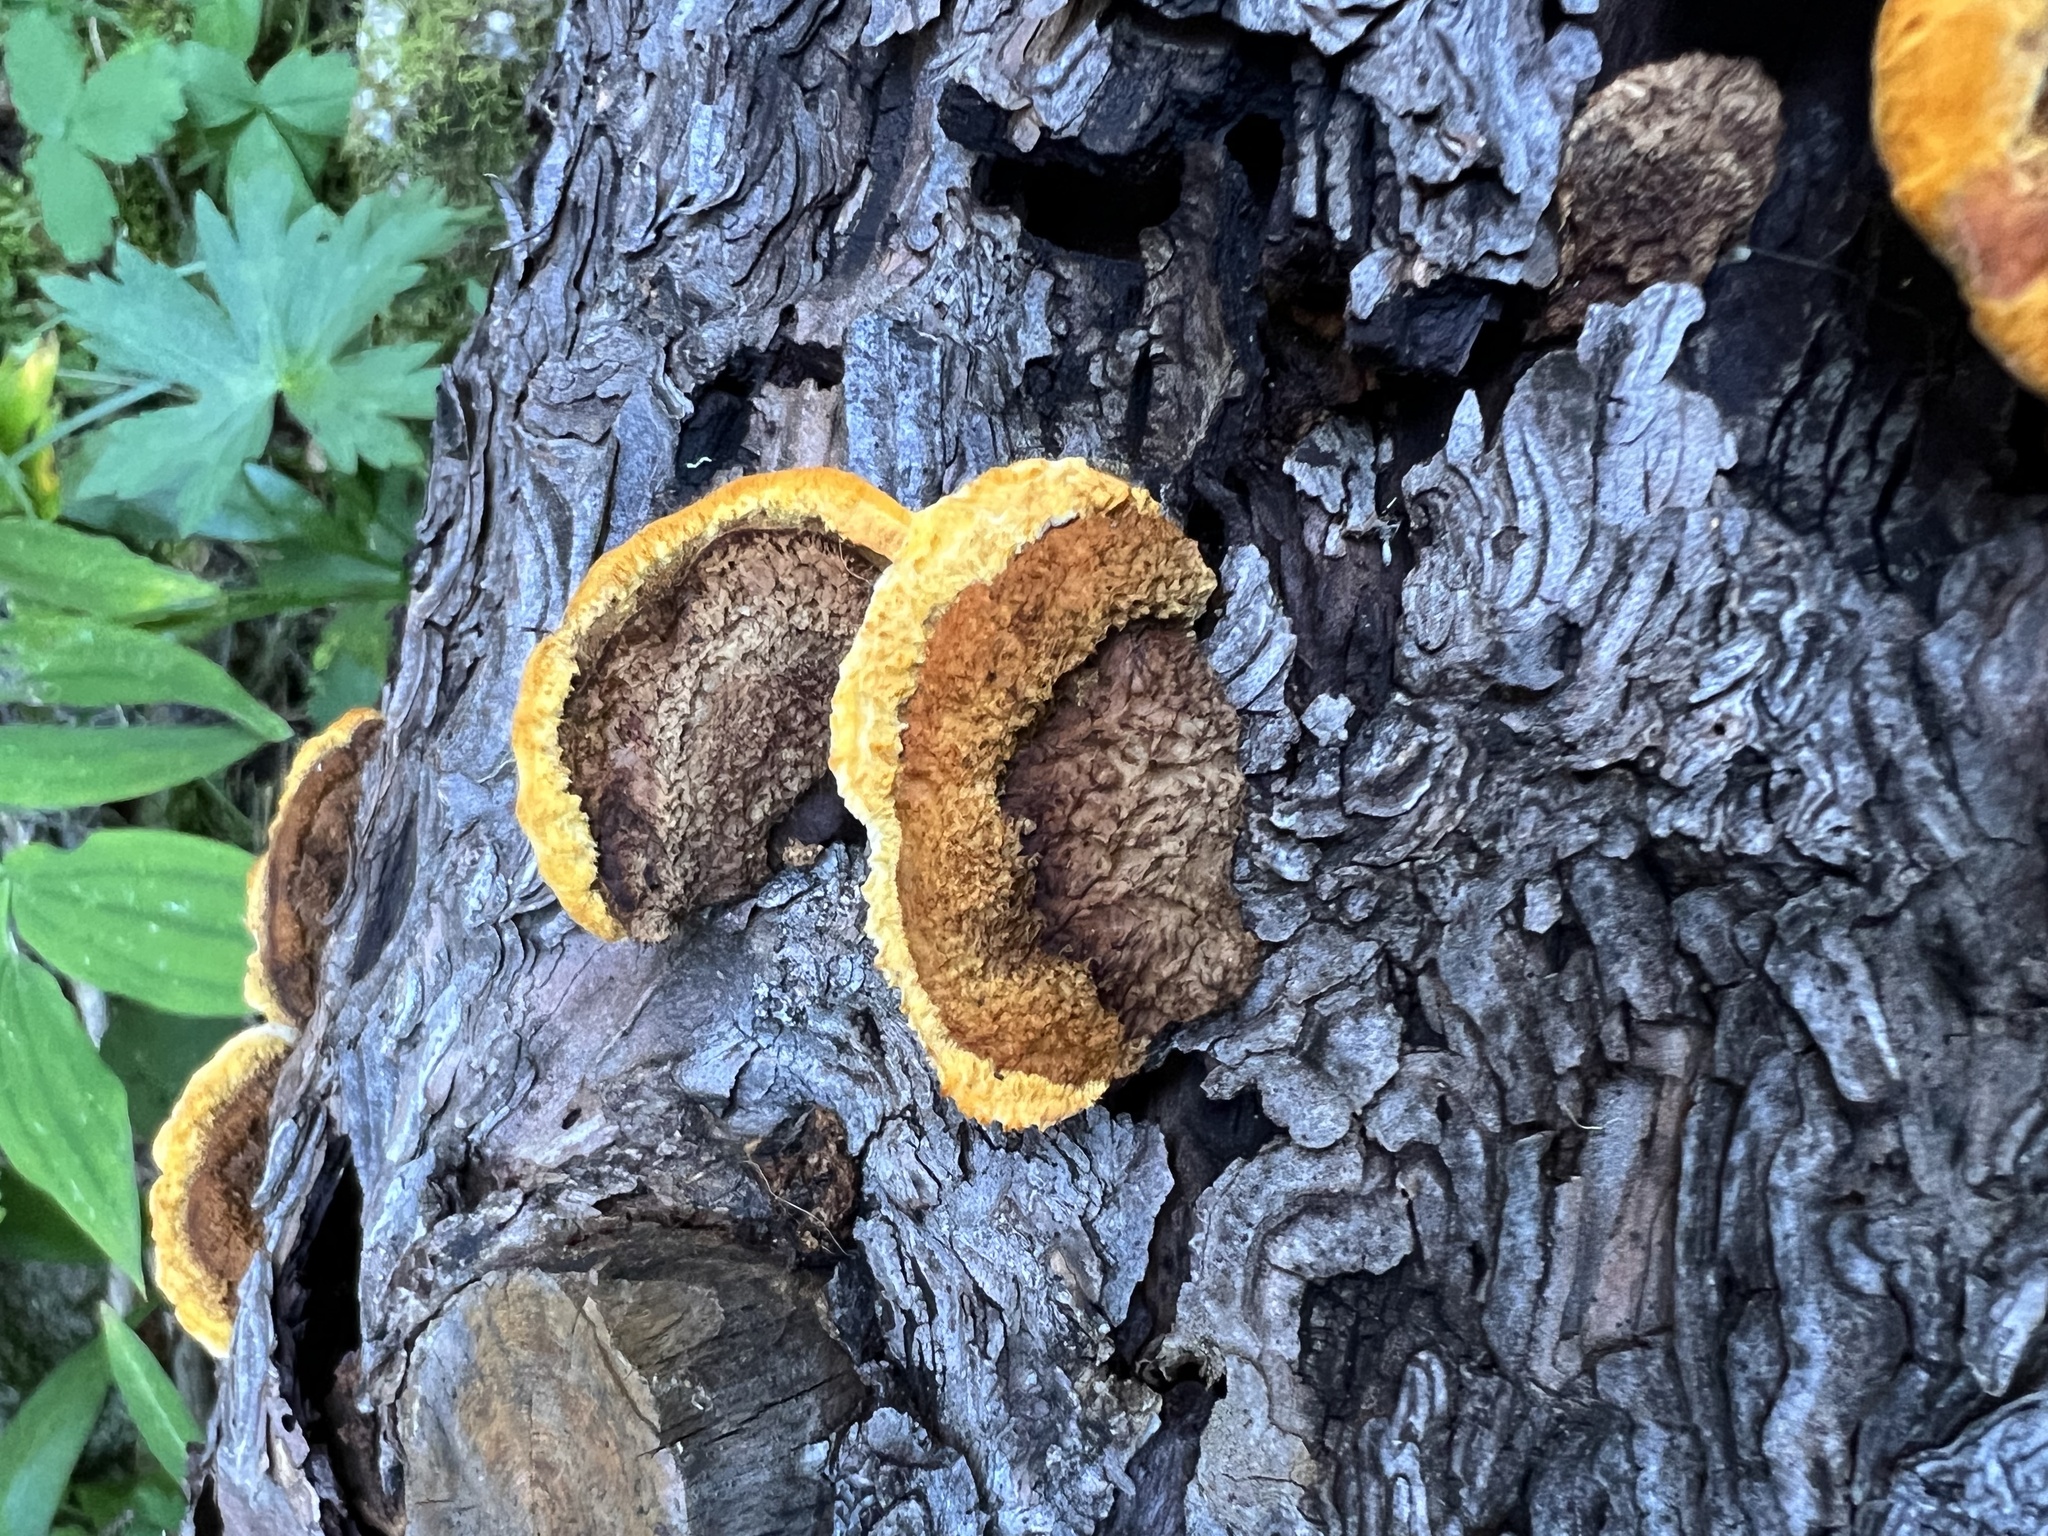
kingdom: Fungi
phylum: Basidiomycota
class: Agaricomycetes
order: Gloeophyllales
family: Gloeophyllaceae
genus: Gloeophyllum
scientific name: Gloeophyllum sepiarium
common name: Conifer mazegill
